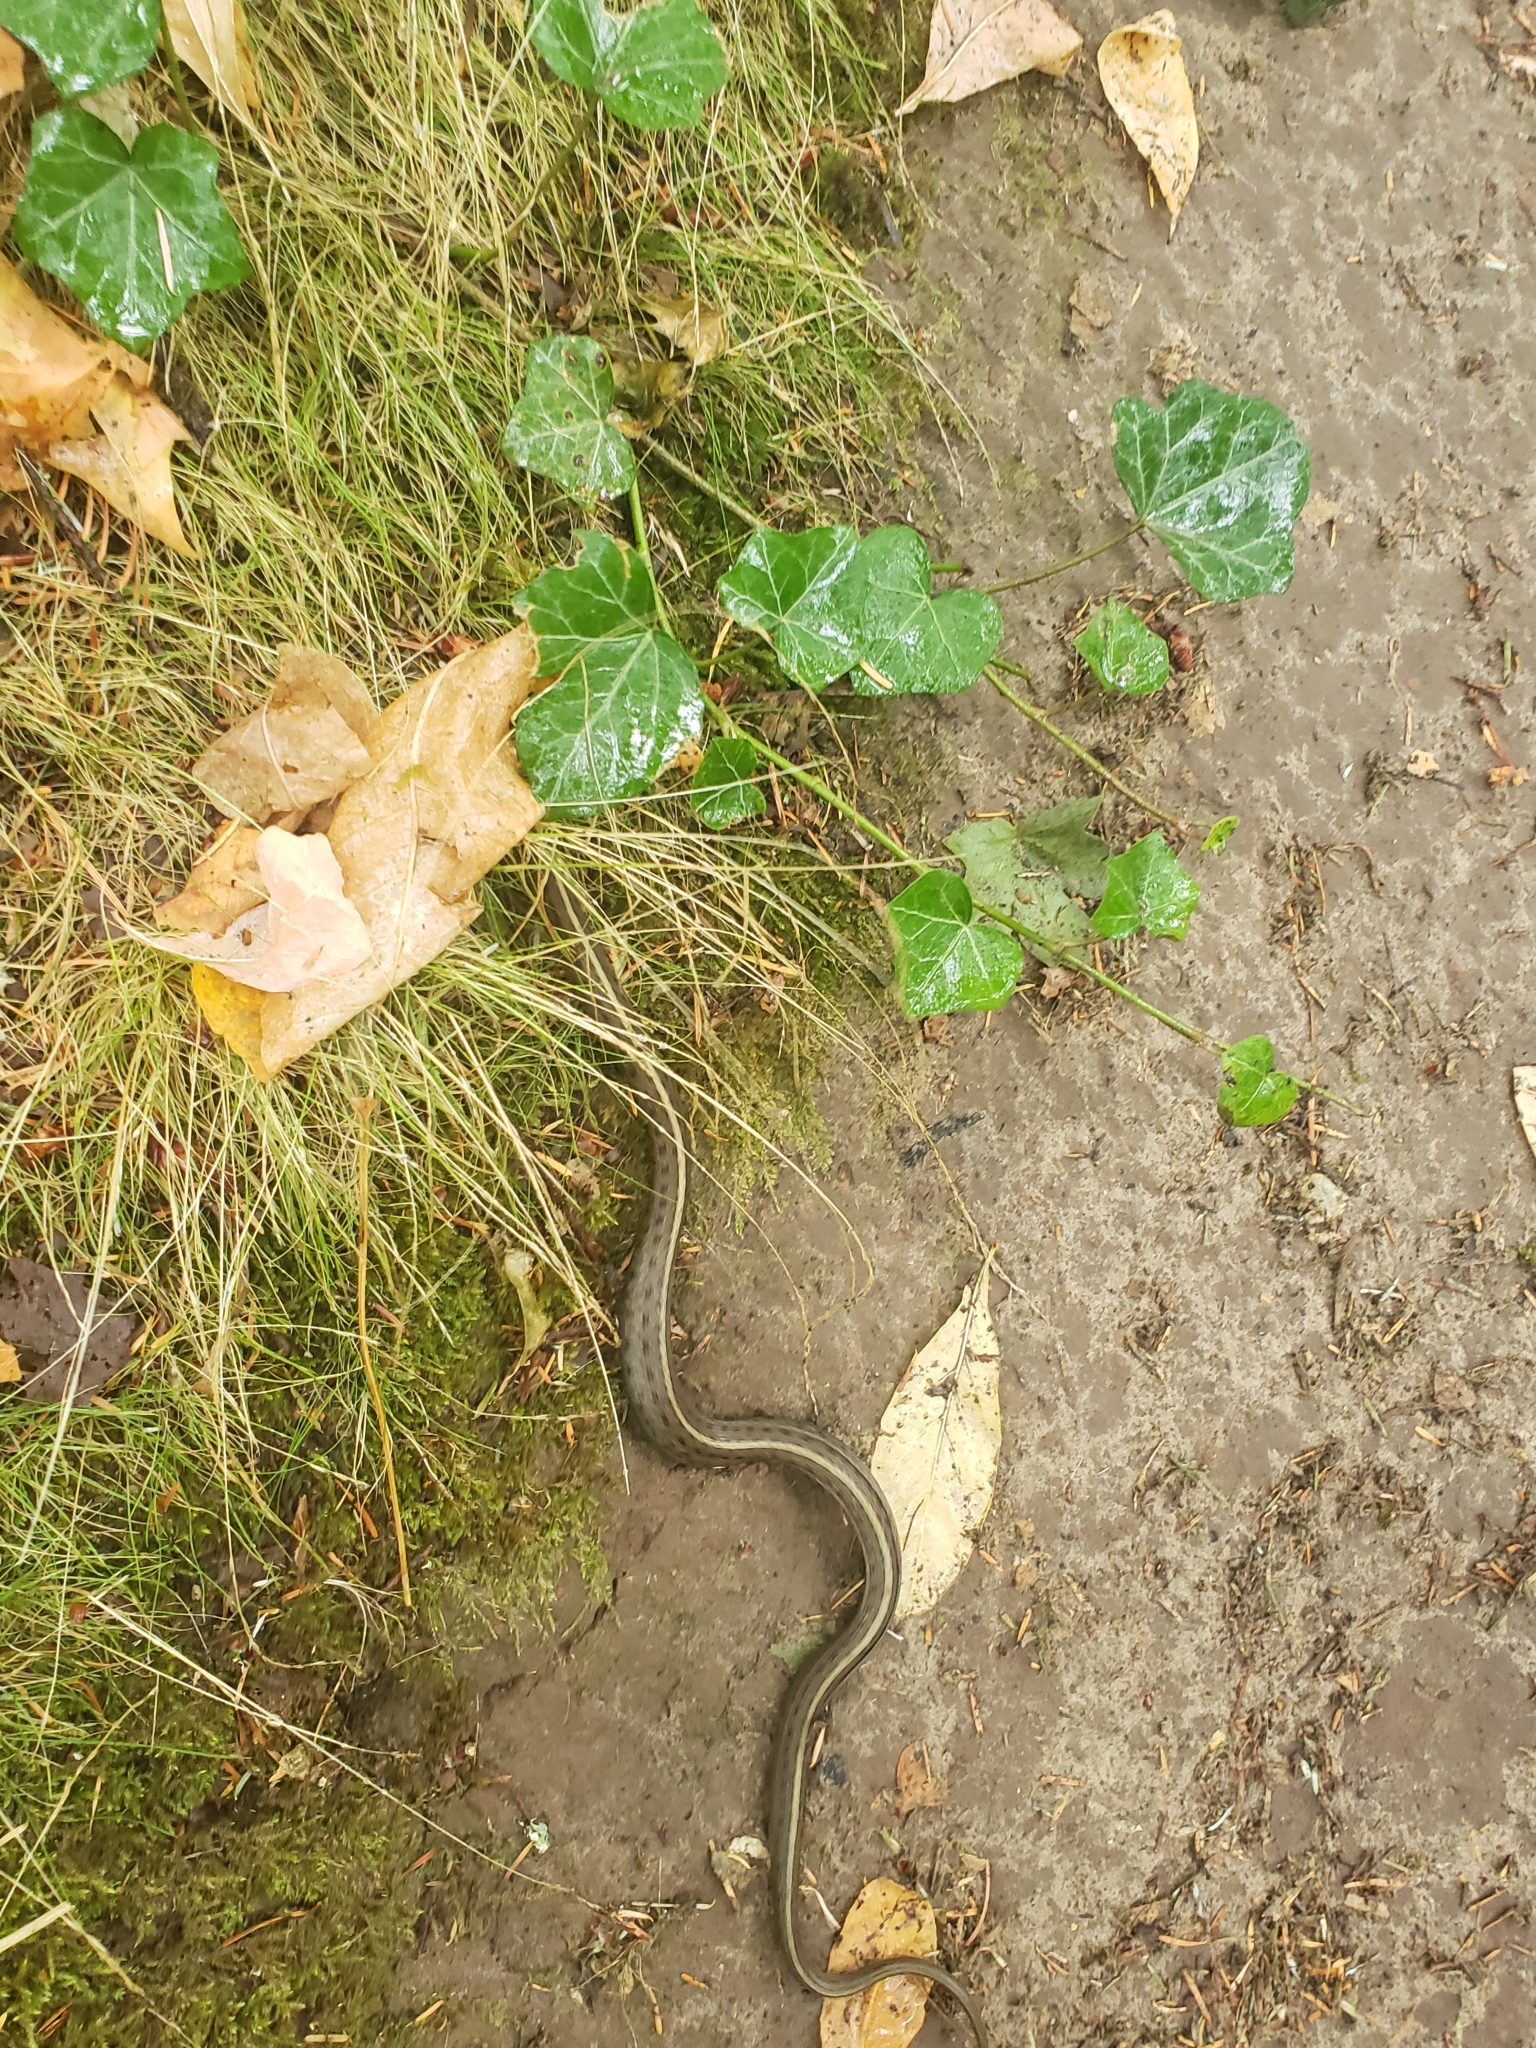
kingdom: Animalia
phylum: Chordata
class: Squamata
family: Colubridae
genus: Thamnophis
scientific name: Thamnophis ordinoides
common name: Northwestern garter snake
